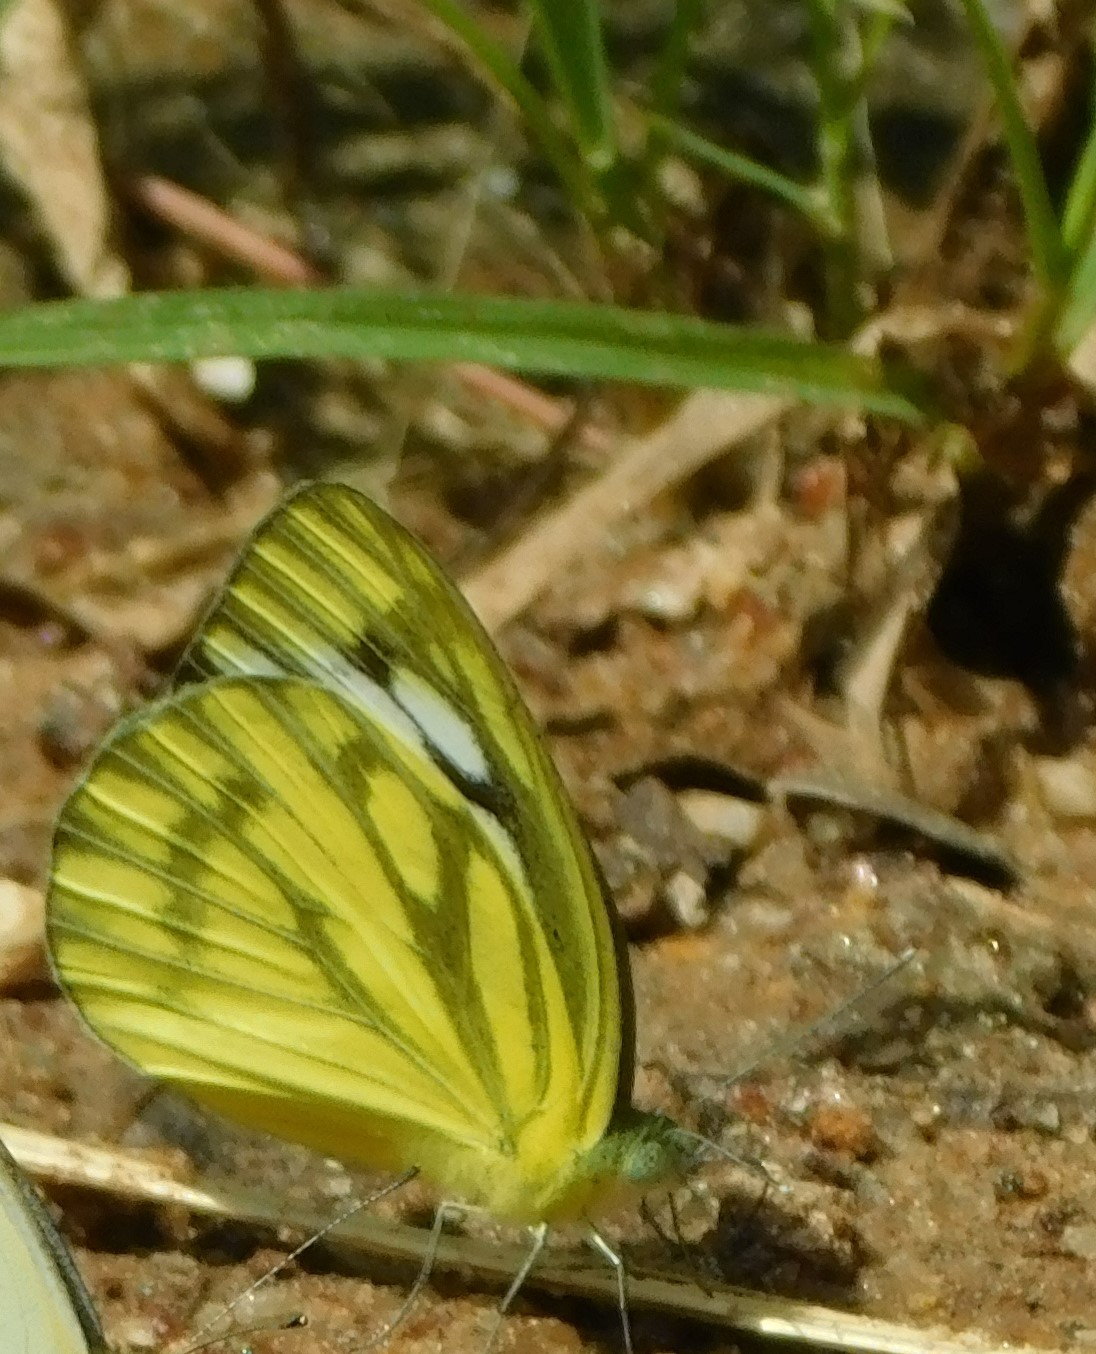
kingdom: Animalia
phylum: Arthropoda
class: Insecta
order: Lepidoptera
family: Pieridae
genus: Cepora
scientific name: Cepora nerissa
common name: Common gull
